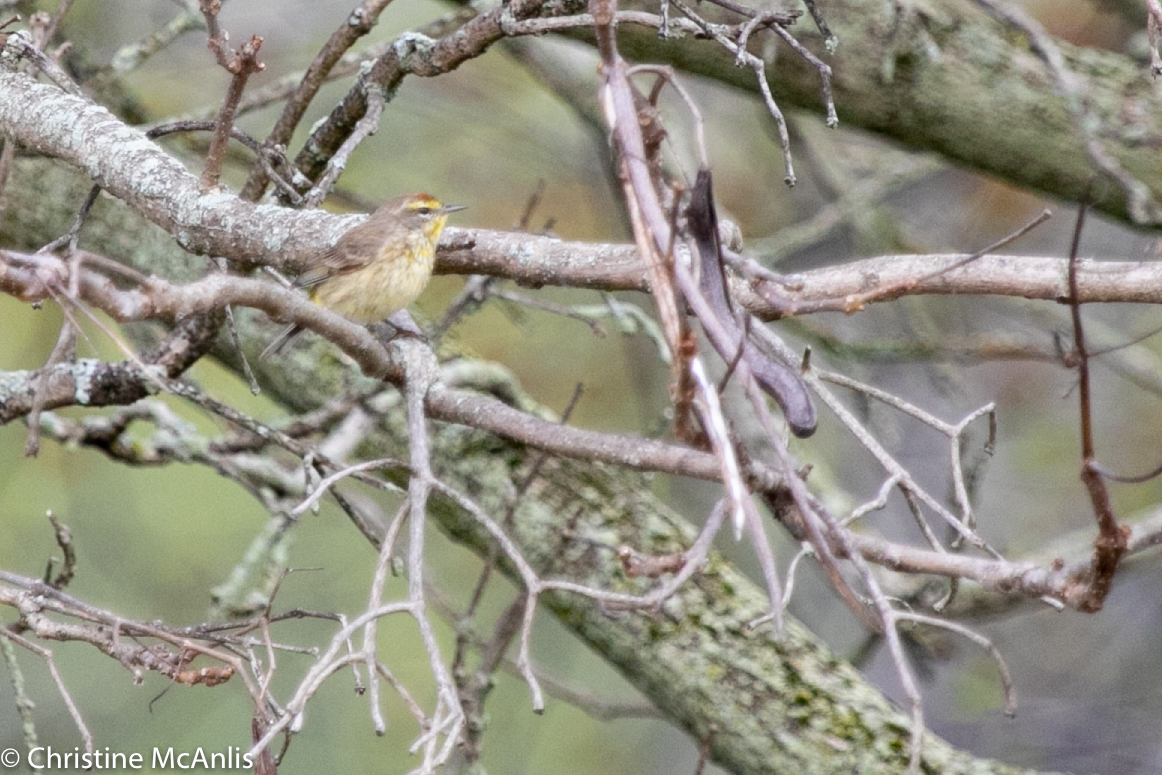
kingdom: Animalia
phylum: Chordata
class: Aves
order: Passeriformes
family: Parulidae
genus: Setophaga
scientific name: Setophaga palmarum
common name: Palm warbler
